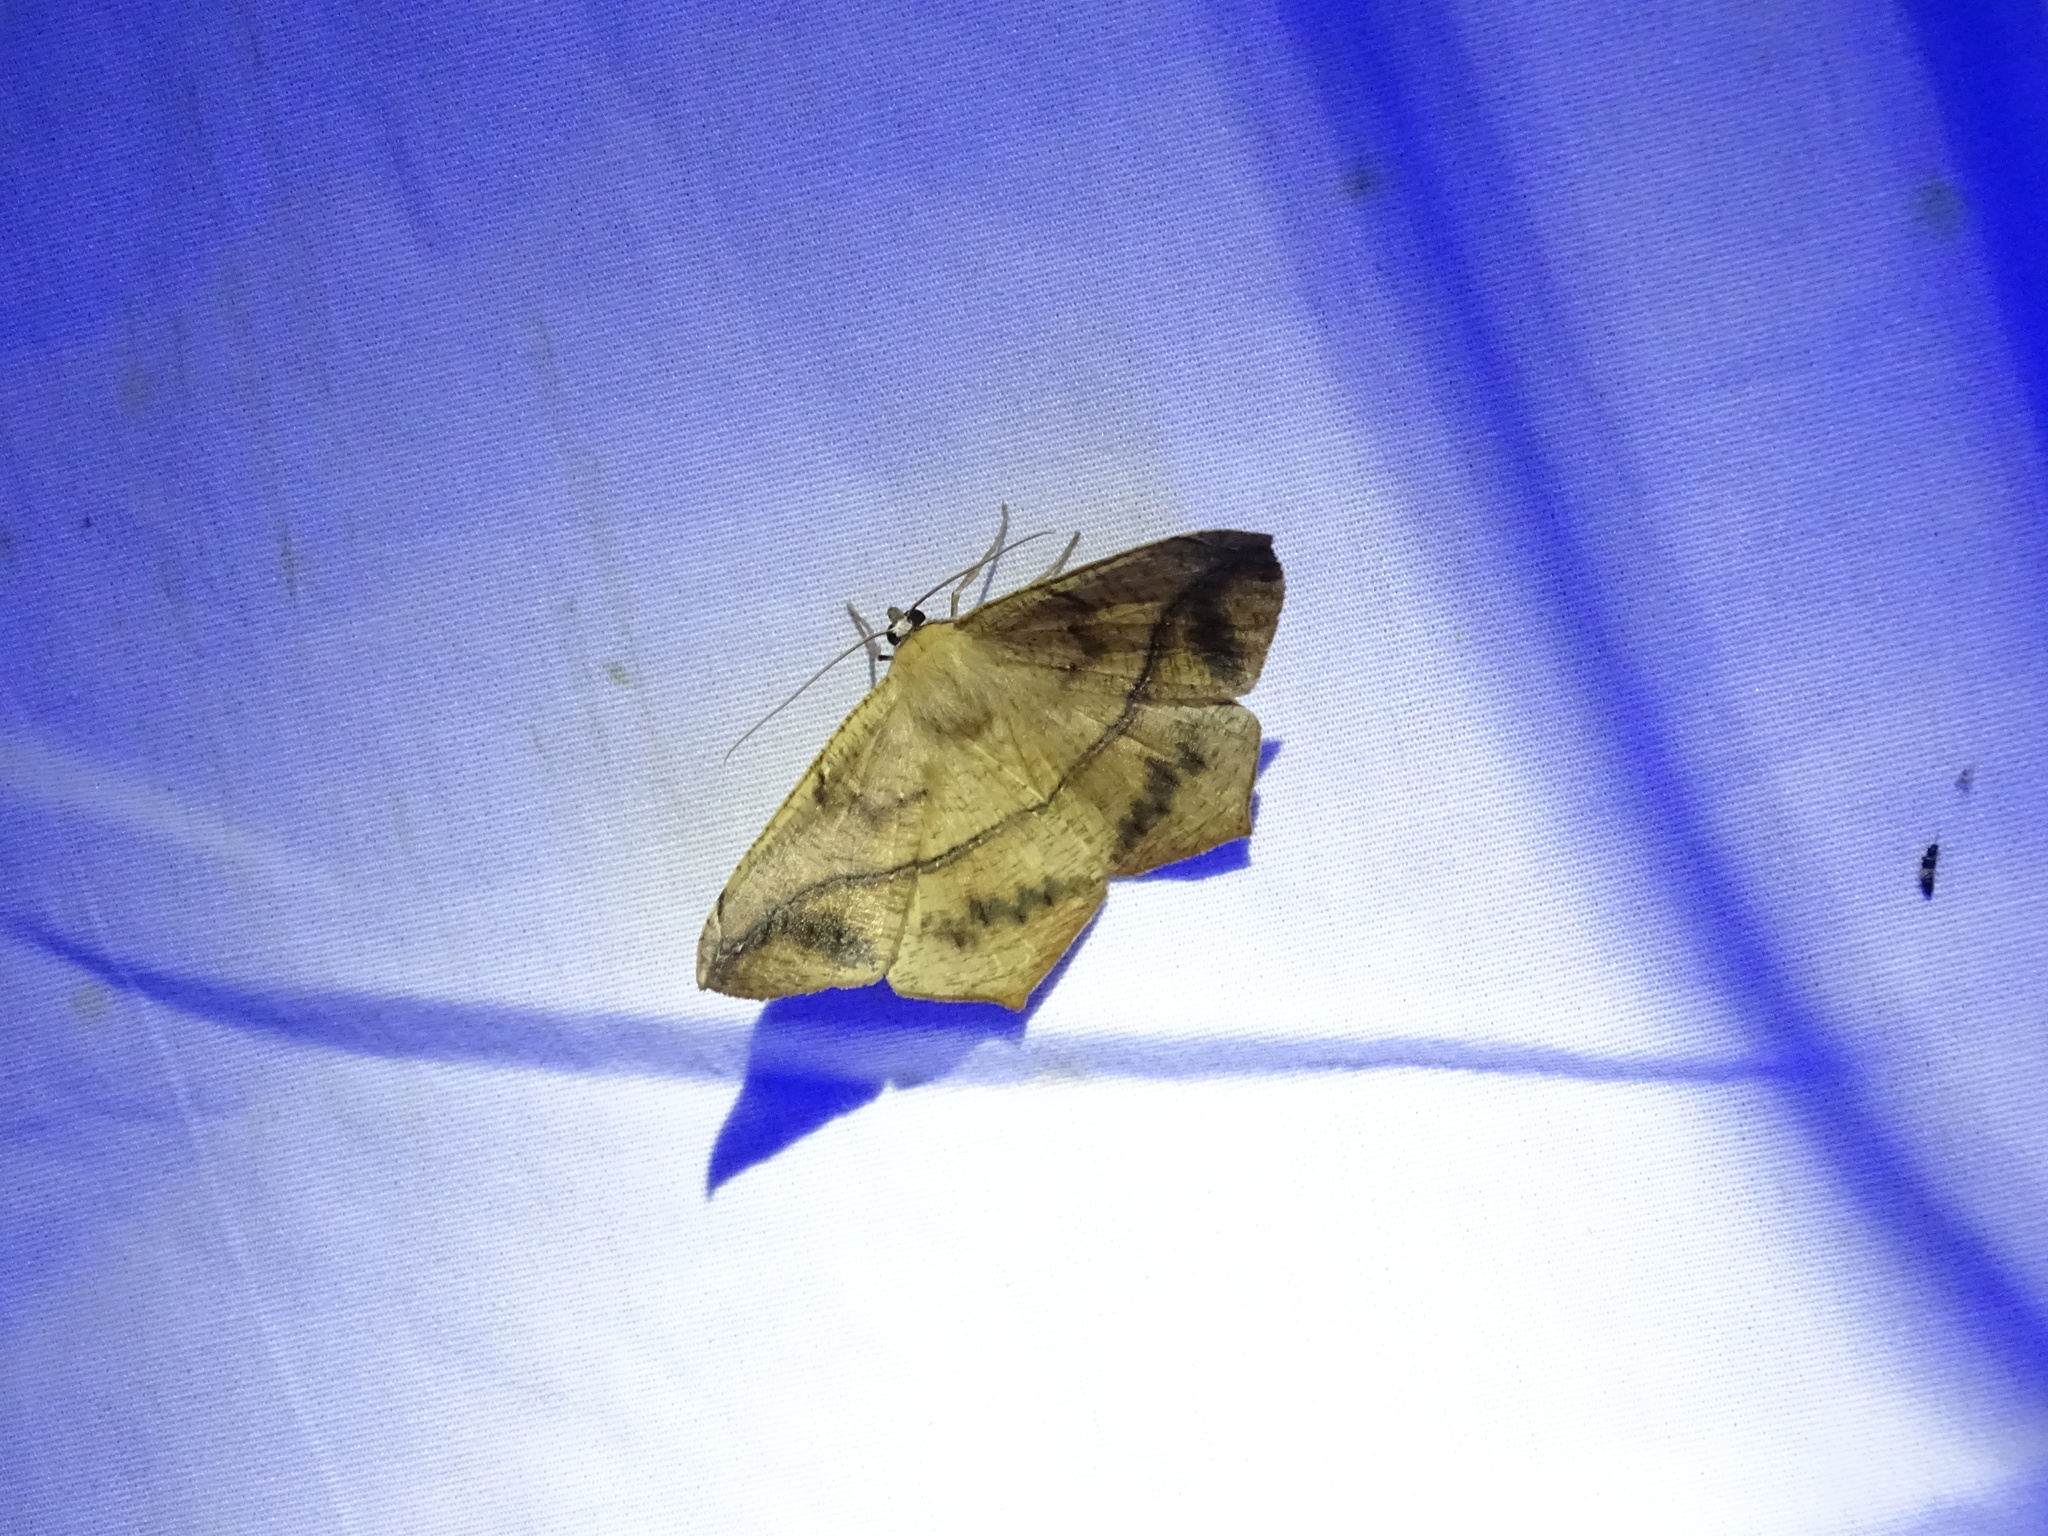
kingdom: Animalia
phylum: Arthropoda
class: Insecta
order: Lepidoptera
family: Geometridae
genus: Prochoerodes
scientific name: Prochoerodes lineola
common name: Large maple spanworm
